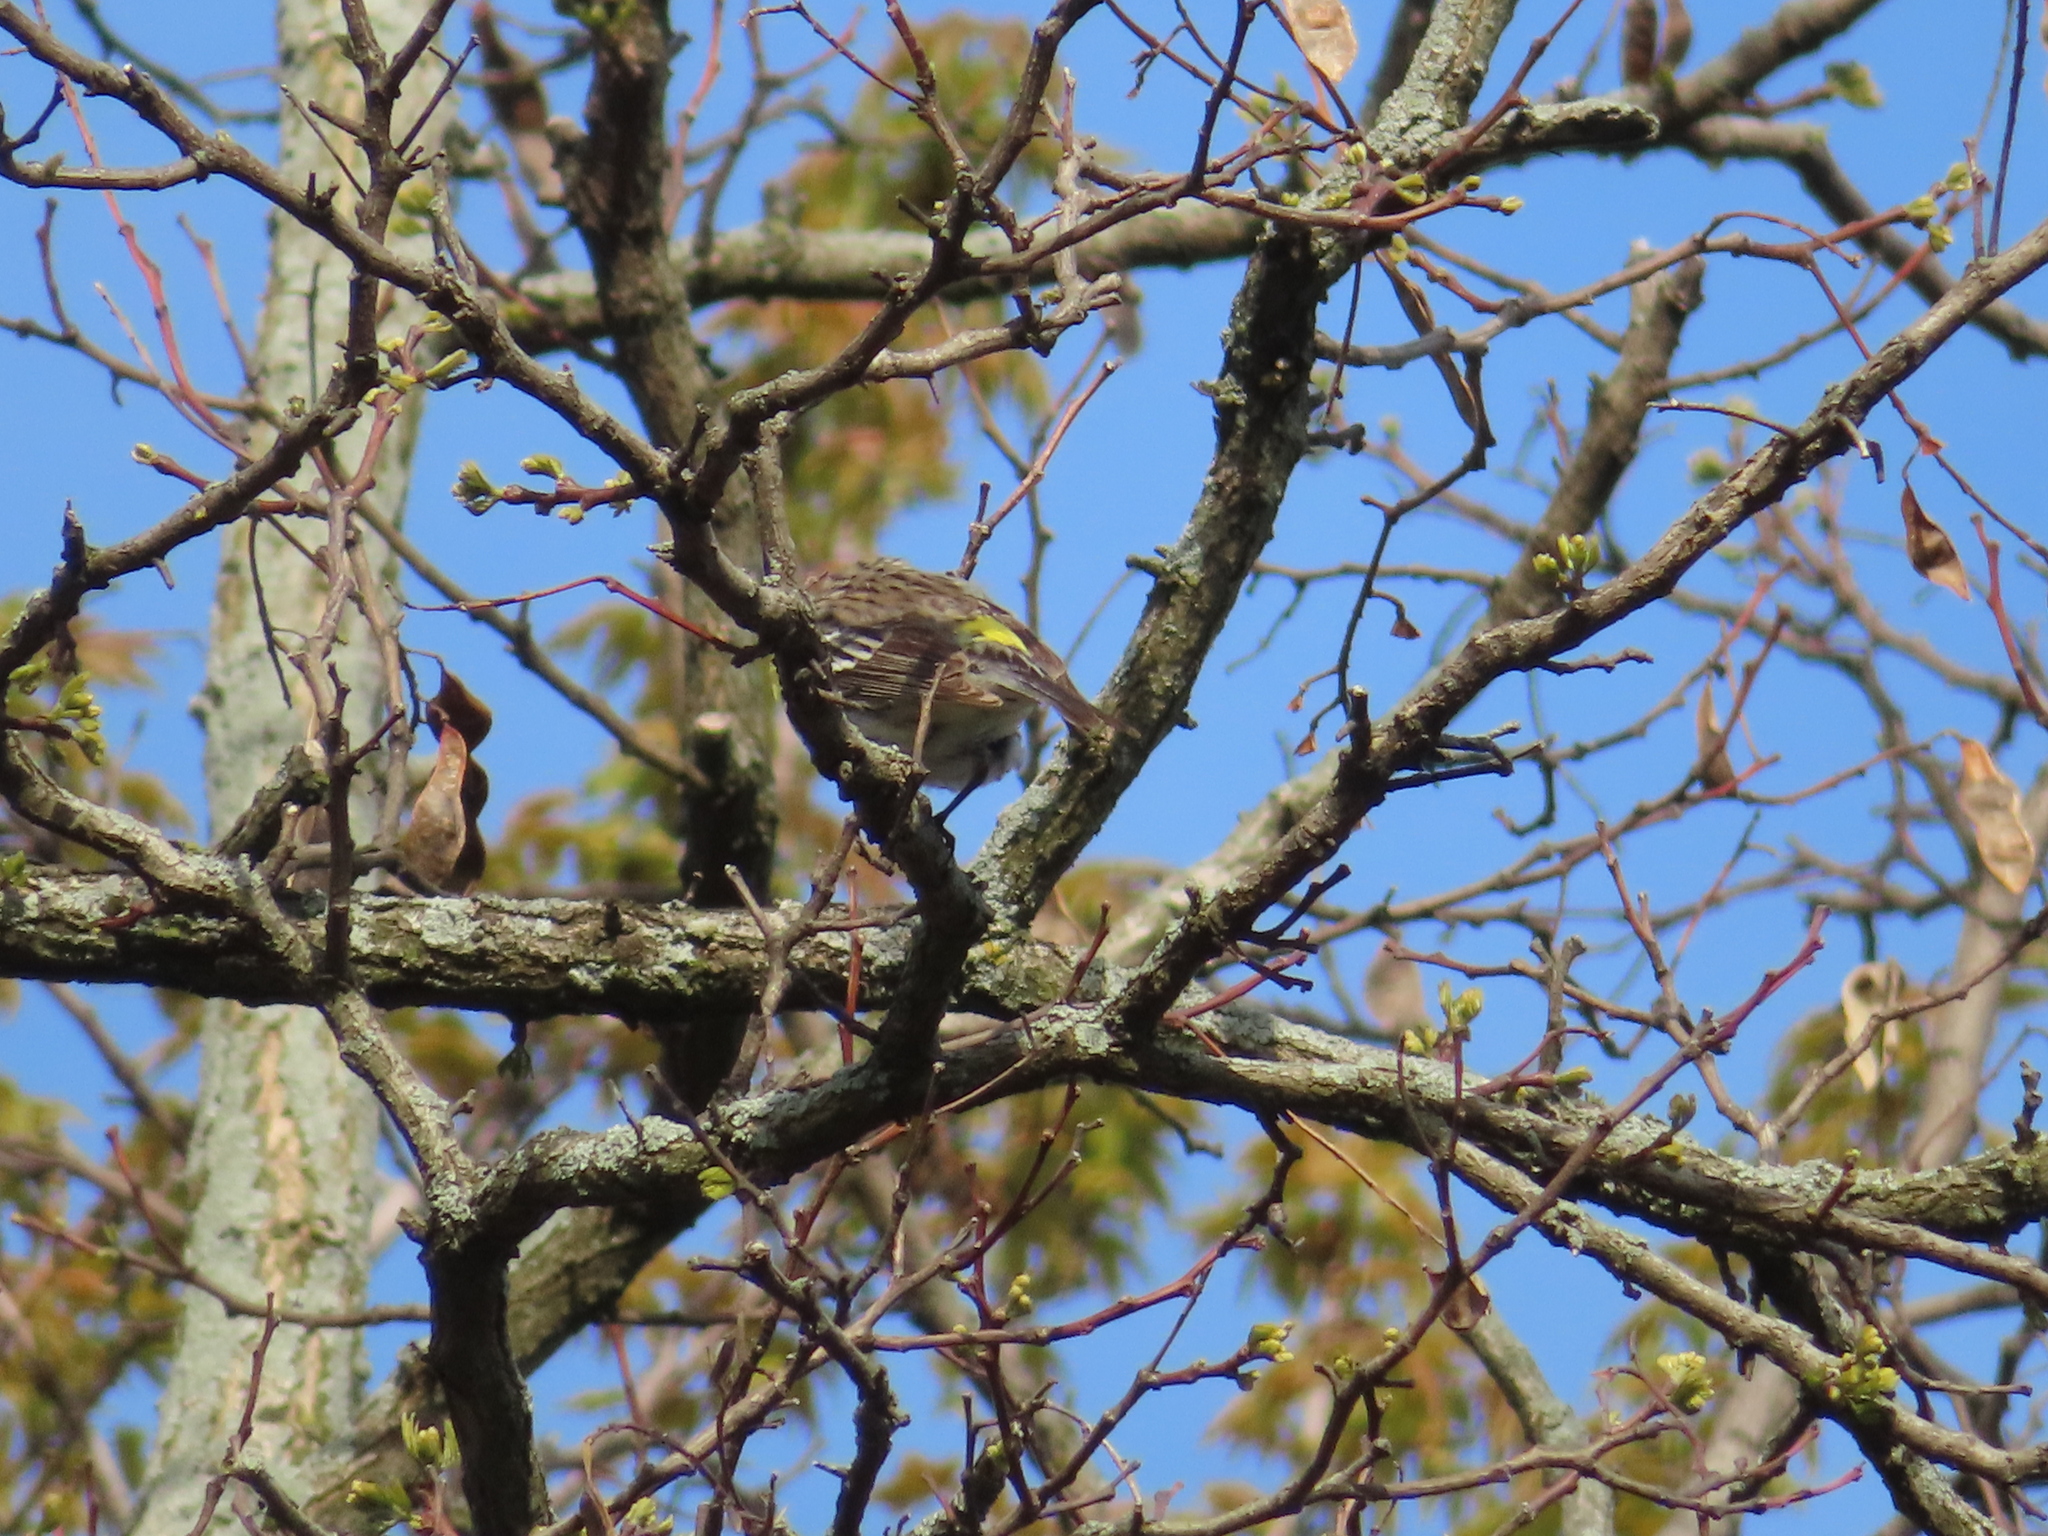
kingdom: Animalia
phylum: Chordata
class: Aves
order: Passeriformes
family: Parulidae
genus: Setophaga
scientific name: Setophaga coronata
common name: Myrtle warbler
